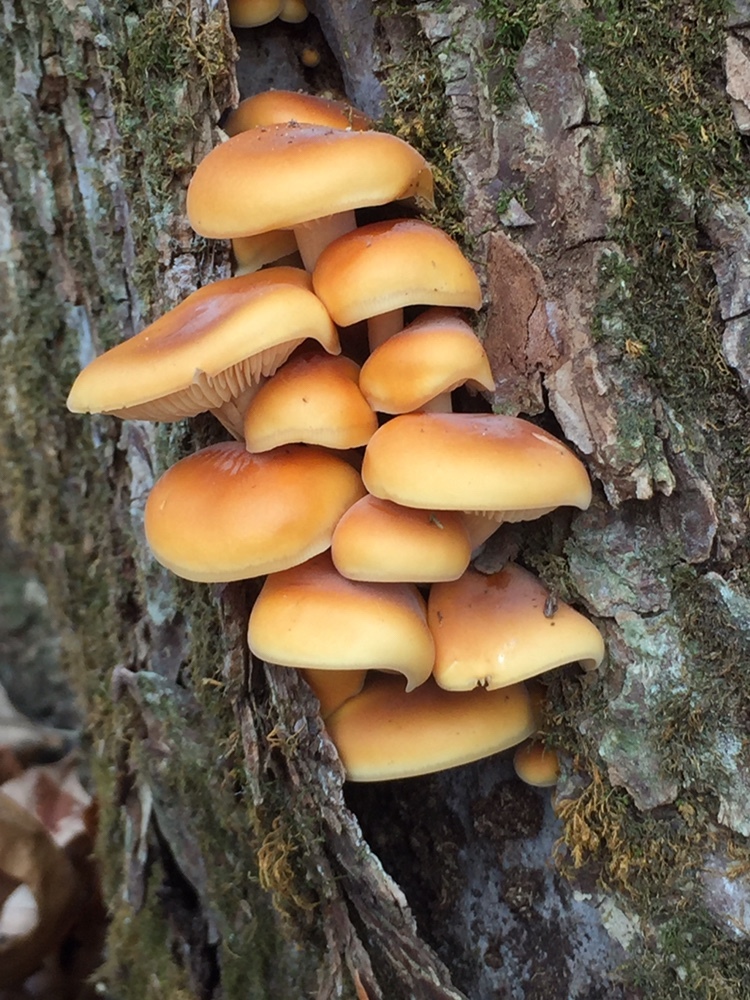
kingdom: Fungi
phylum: Basidiomycota
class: Agaricomycetes
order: Agaricales
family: Physalacriaceae
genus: Flammulina
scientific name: Flammulina velutipes
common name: Velvet shank
